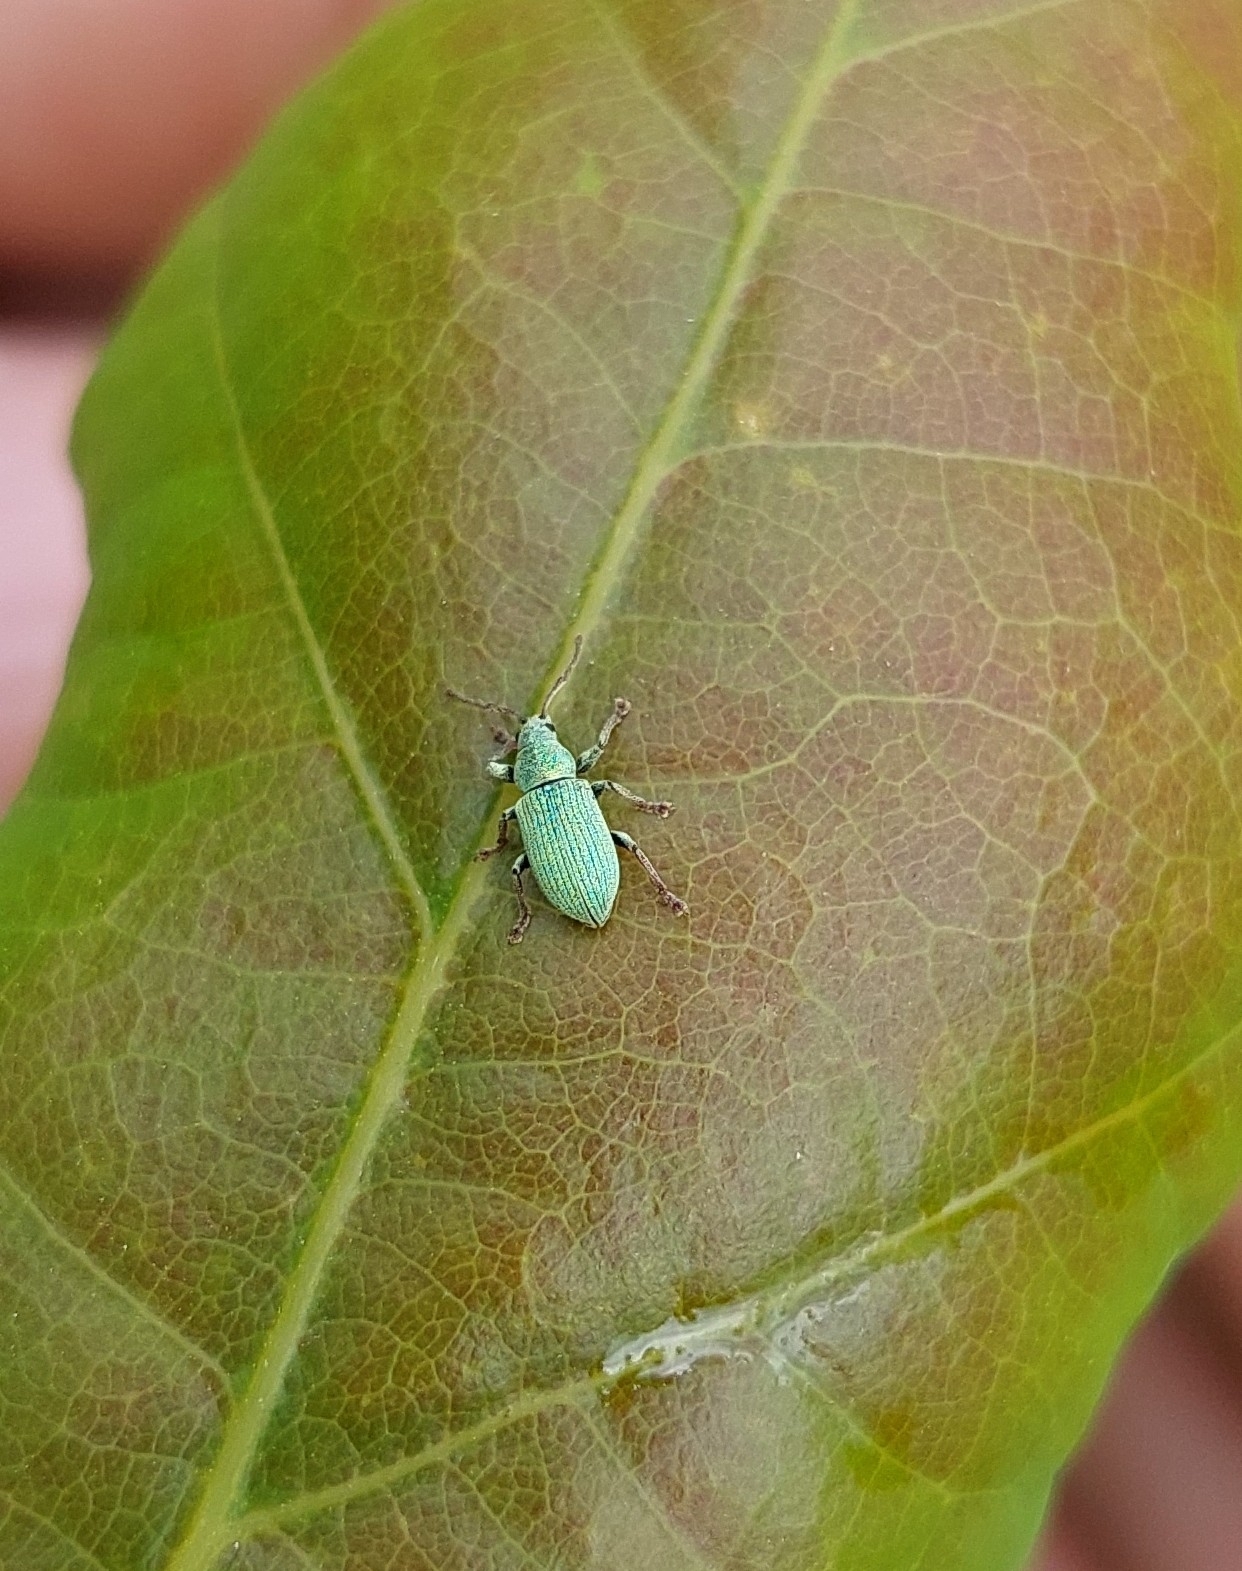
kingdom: Animalia
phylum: Arthropoda
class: Insecta
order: Coleoptera
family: Curculionidae
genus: Phyllobius
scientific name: Phyllobius roboretanus
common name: Small green nettle weevil
